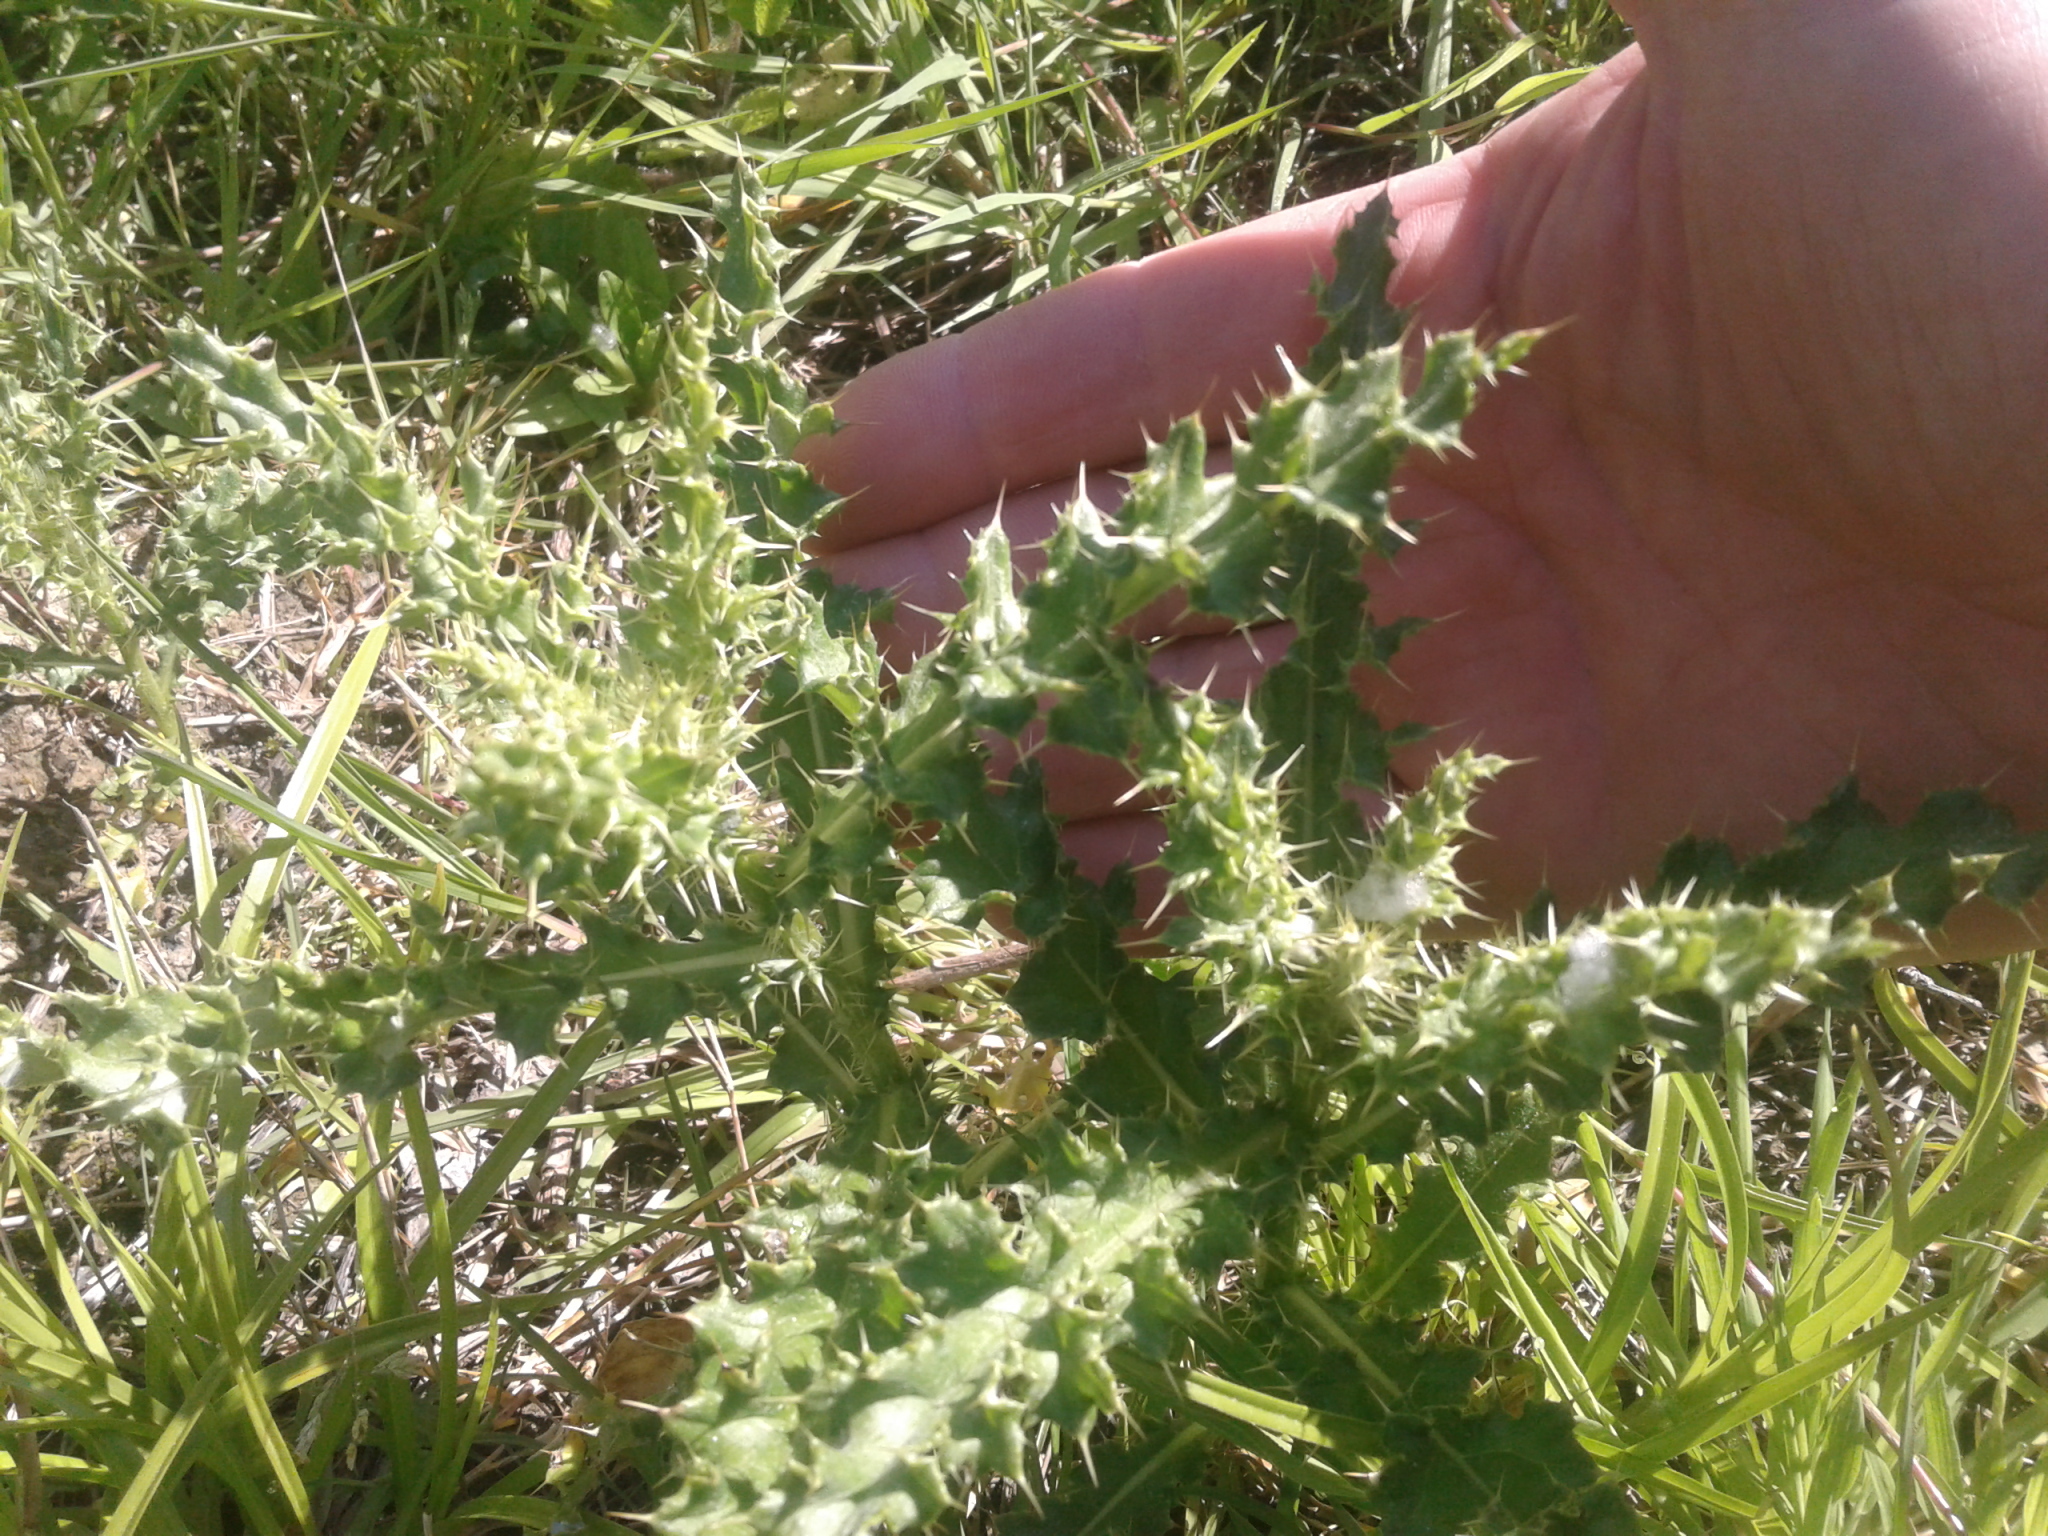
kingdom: Plantae
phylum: Tracheophyta
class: Magnoliopsida
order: Asterales
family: Asteraceae
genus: Cirsium
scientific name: Cirsium arvense
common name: Creeping thistle
